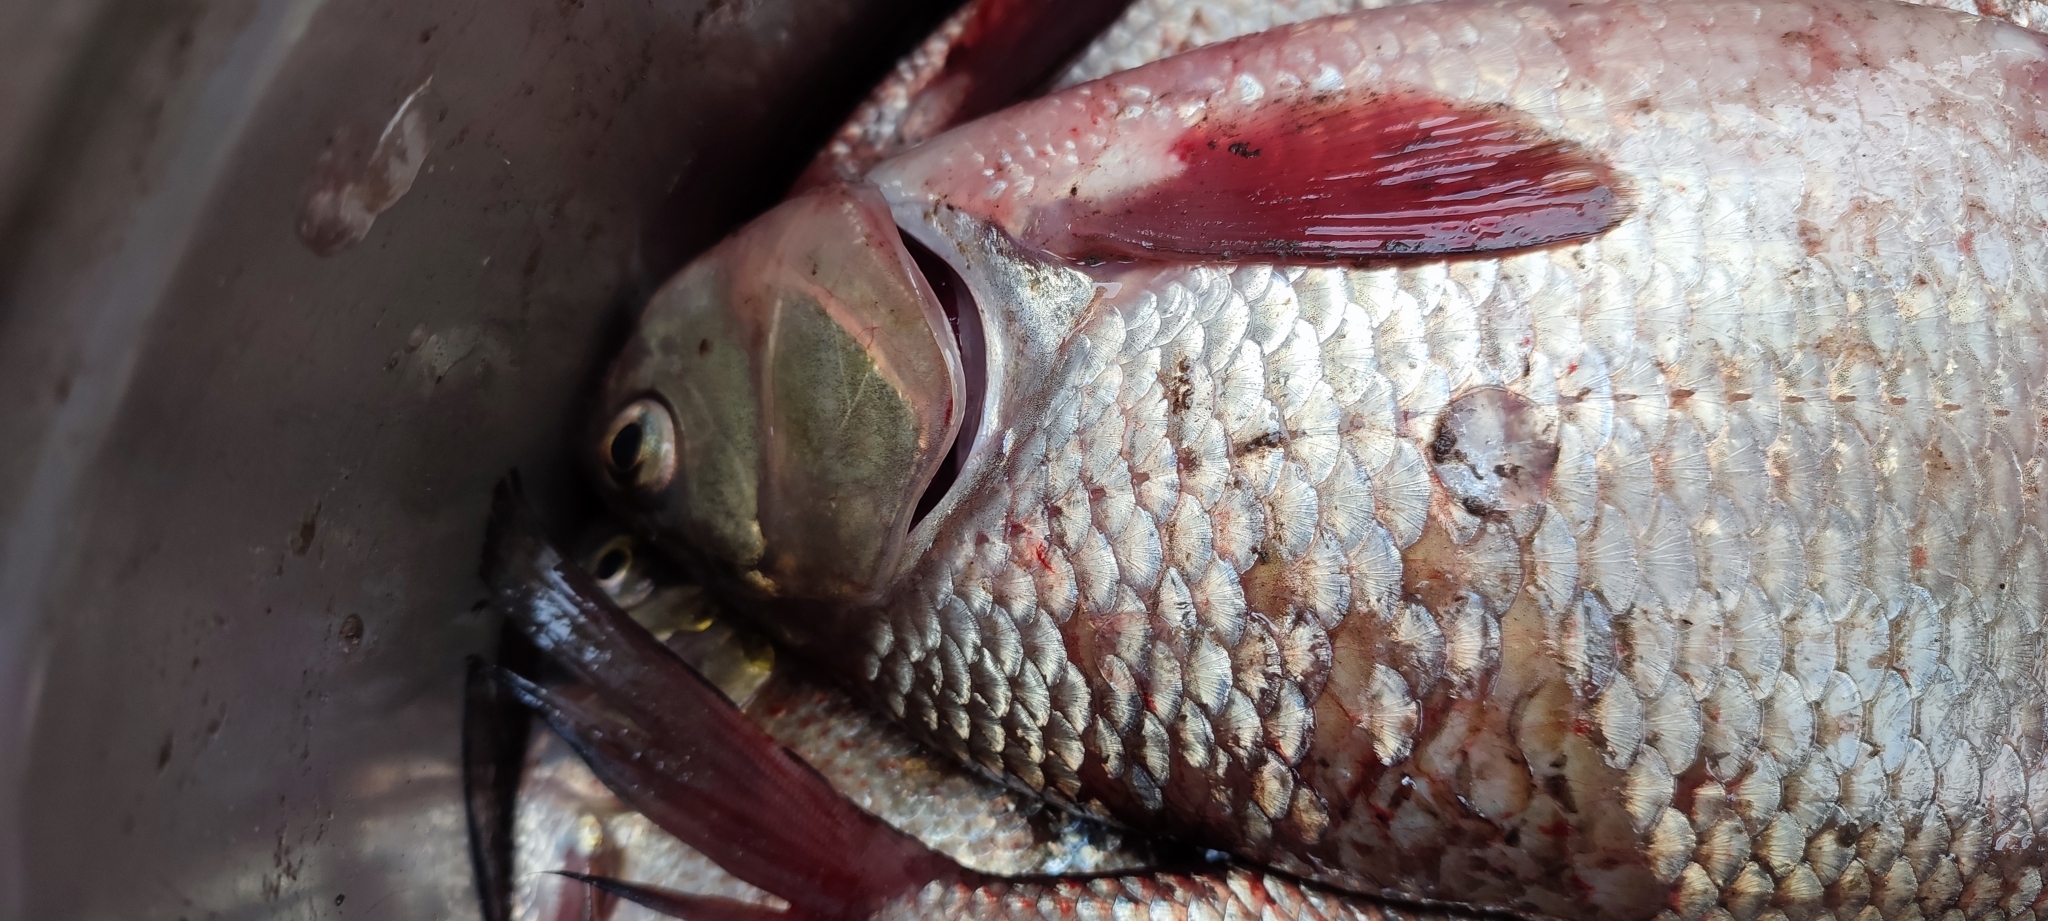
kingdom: Animalia
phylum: Chordata
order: Cypriniformes
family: Cyprinidae
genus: Leuciscus
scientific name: Leuciscus idus
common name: Ide
